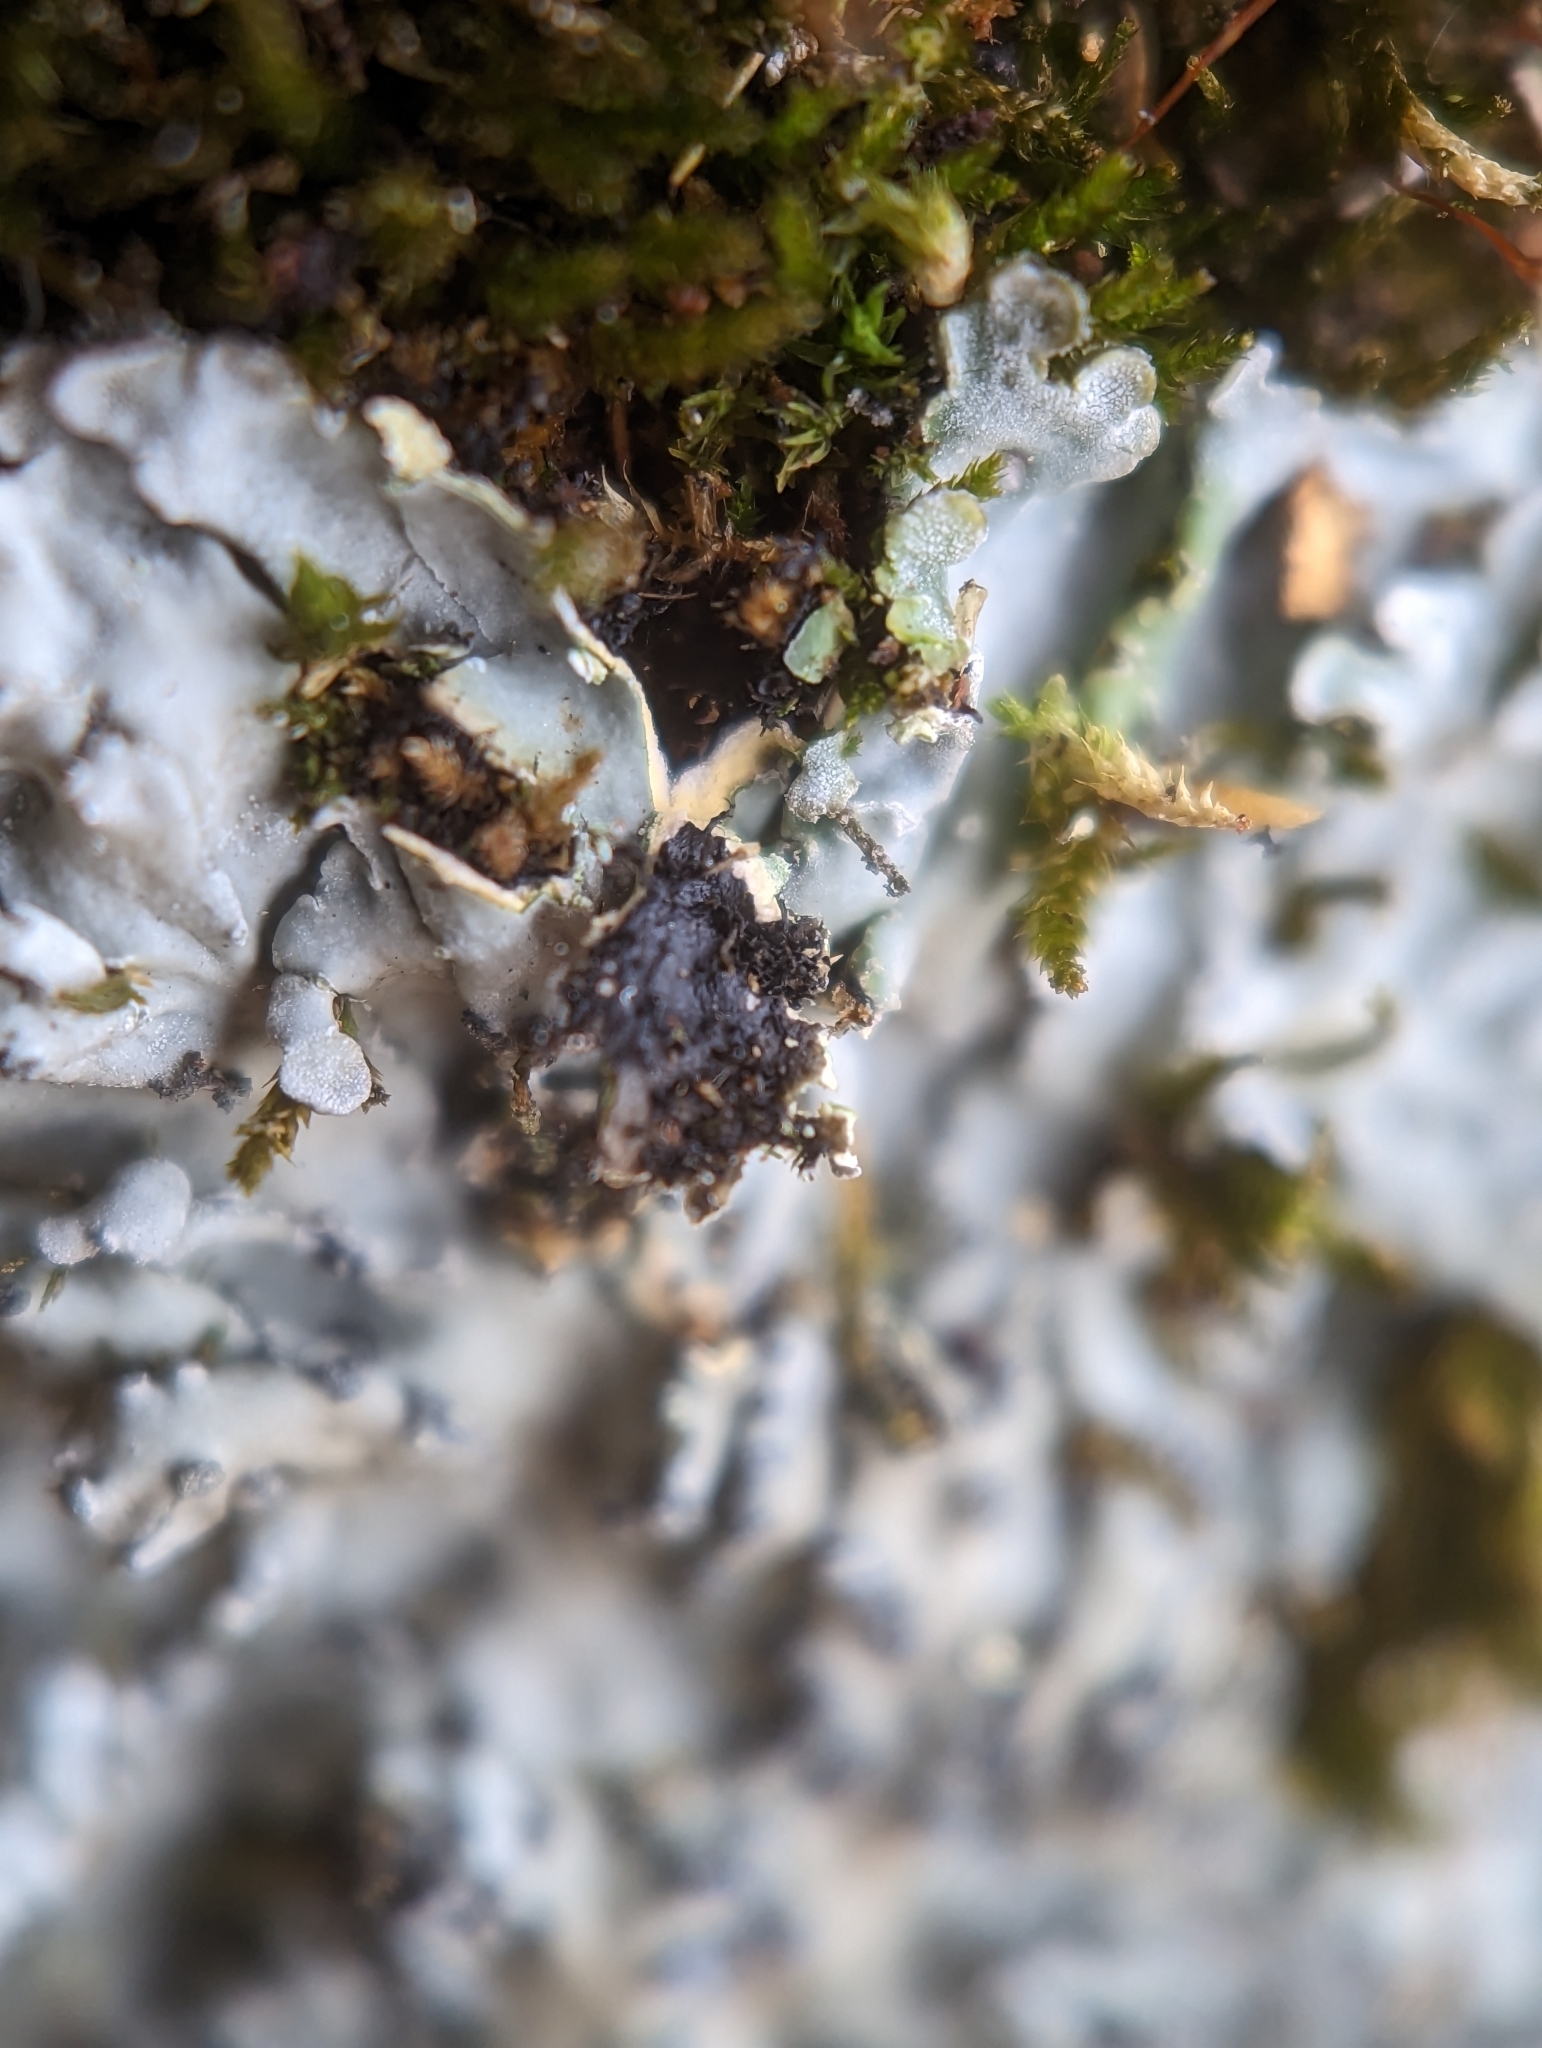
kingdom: Fungi
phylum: Ascomycota
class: Lecanoromycetes
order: Caliciales
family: Caliciaceae
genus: Pyxine
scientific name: Pyxine sorediata
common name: Mustard lichen
